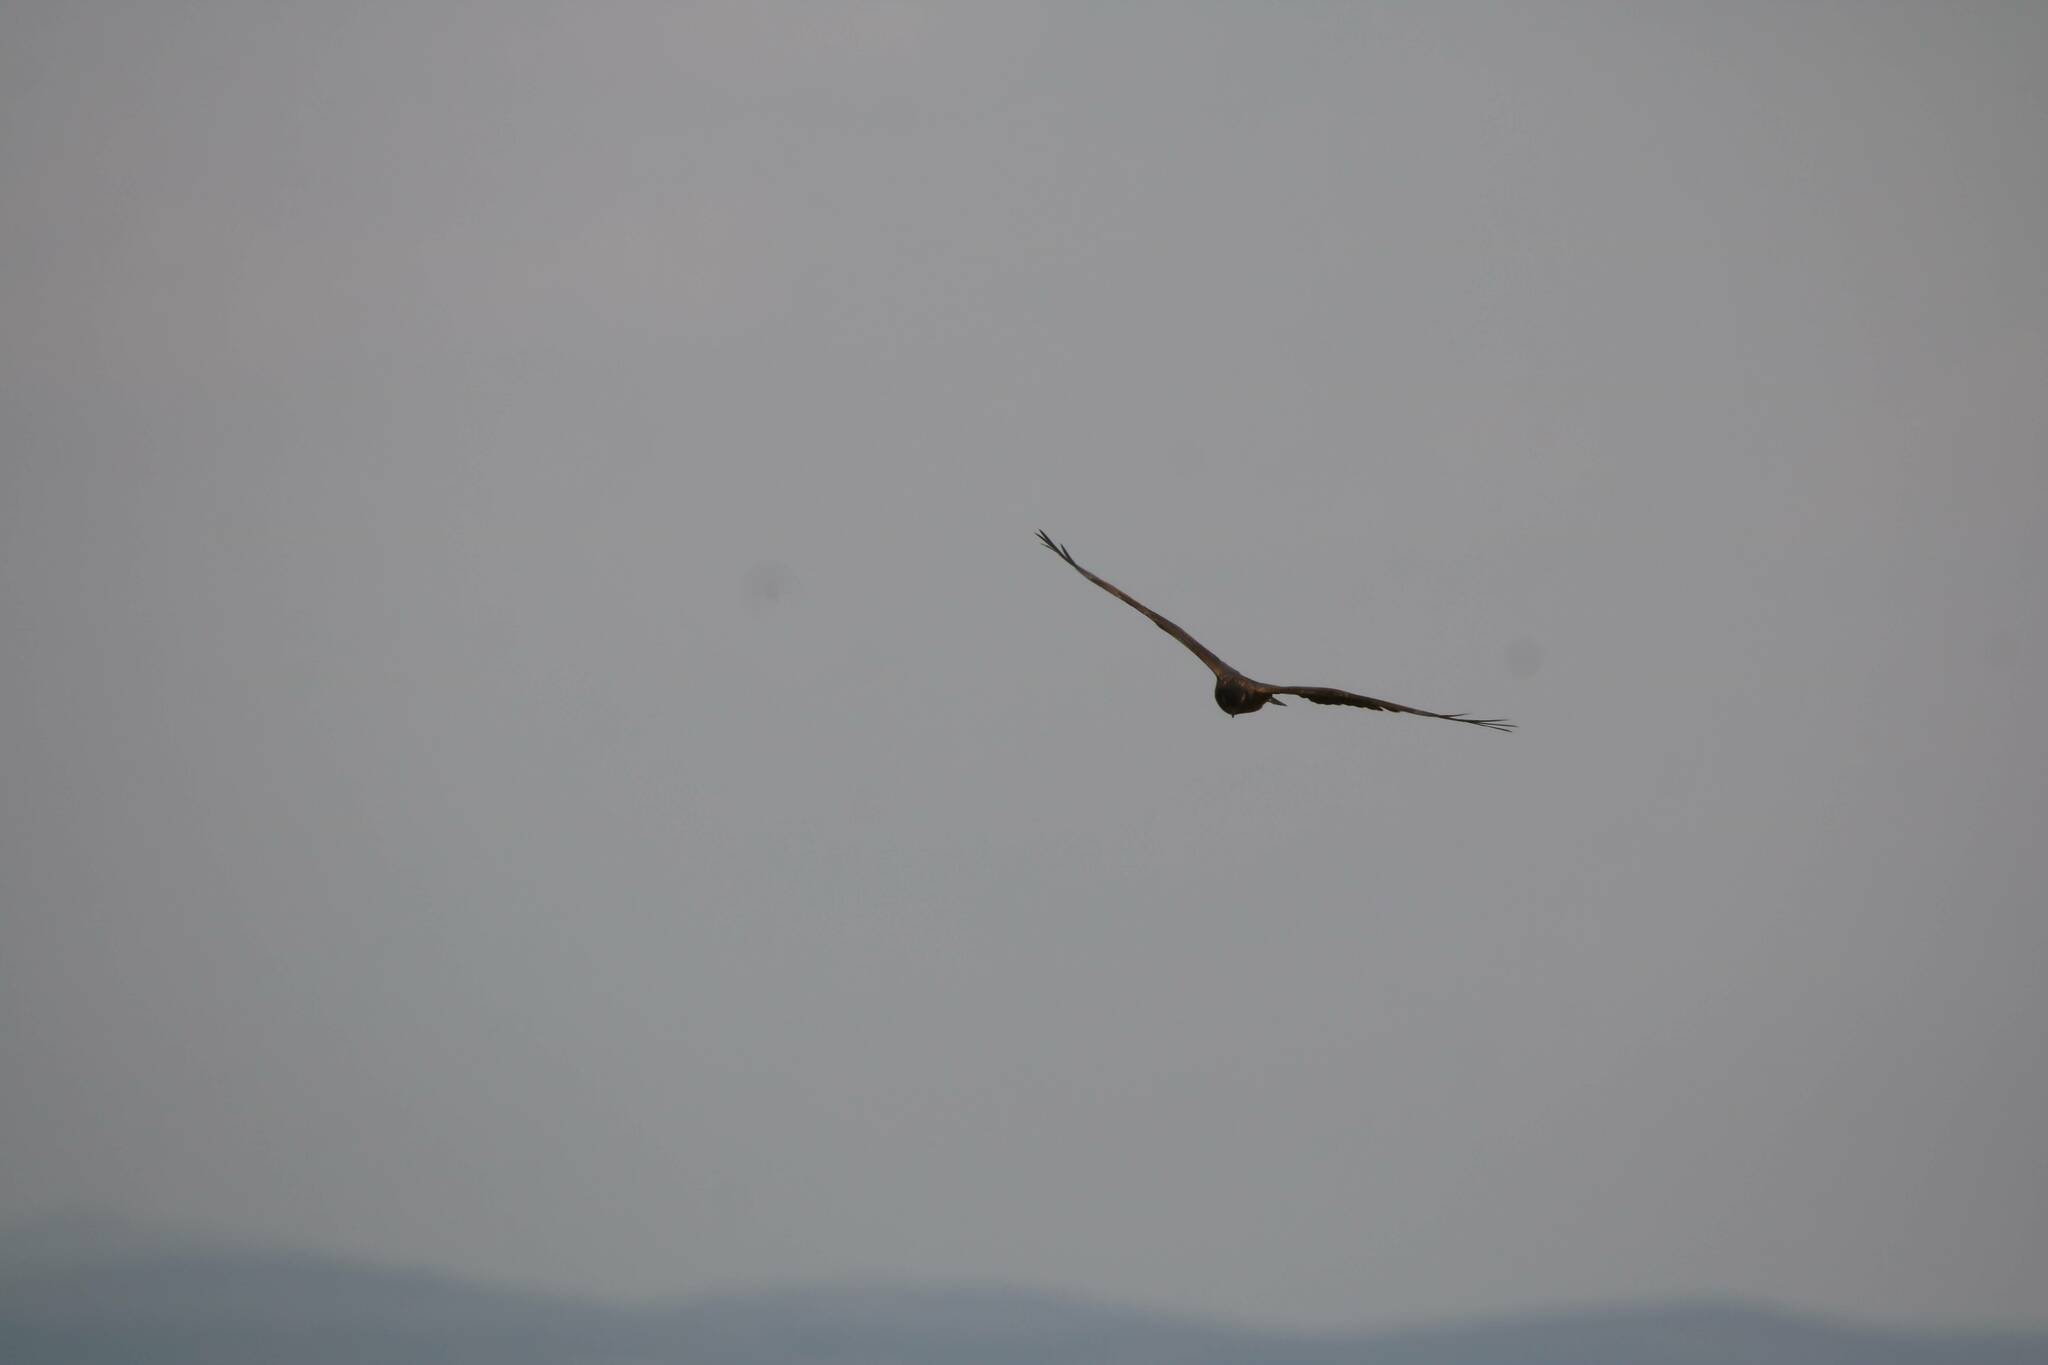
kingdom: Animalia
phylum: Chordata
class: Aves
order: Accipitriformes
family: Accipitridae
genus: Circus
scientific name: Circus pygargus
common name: Montagu's harrier
